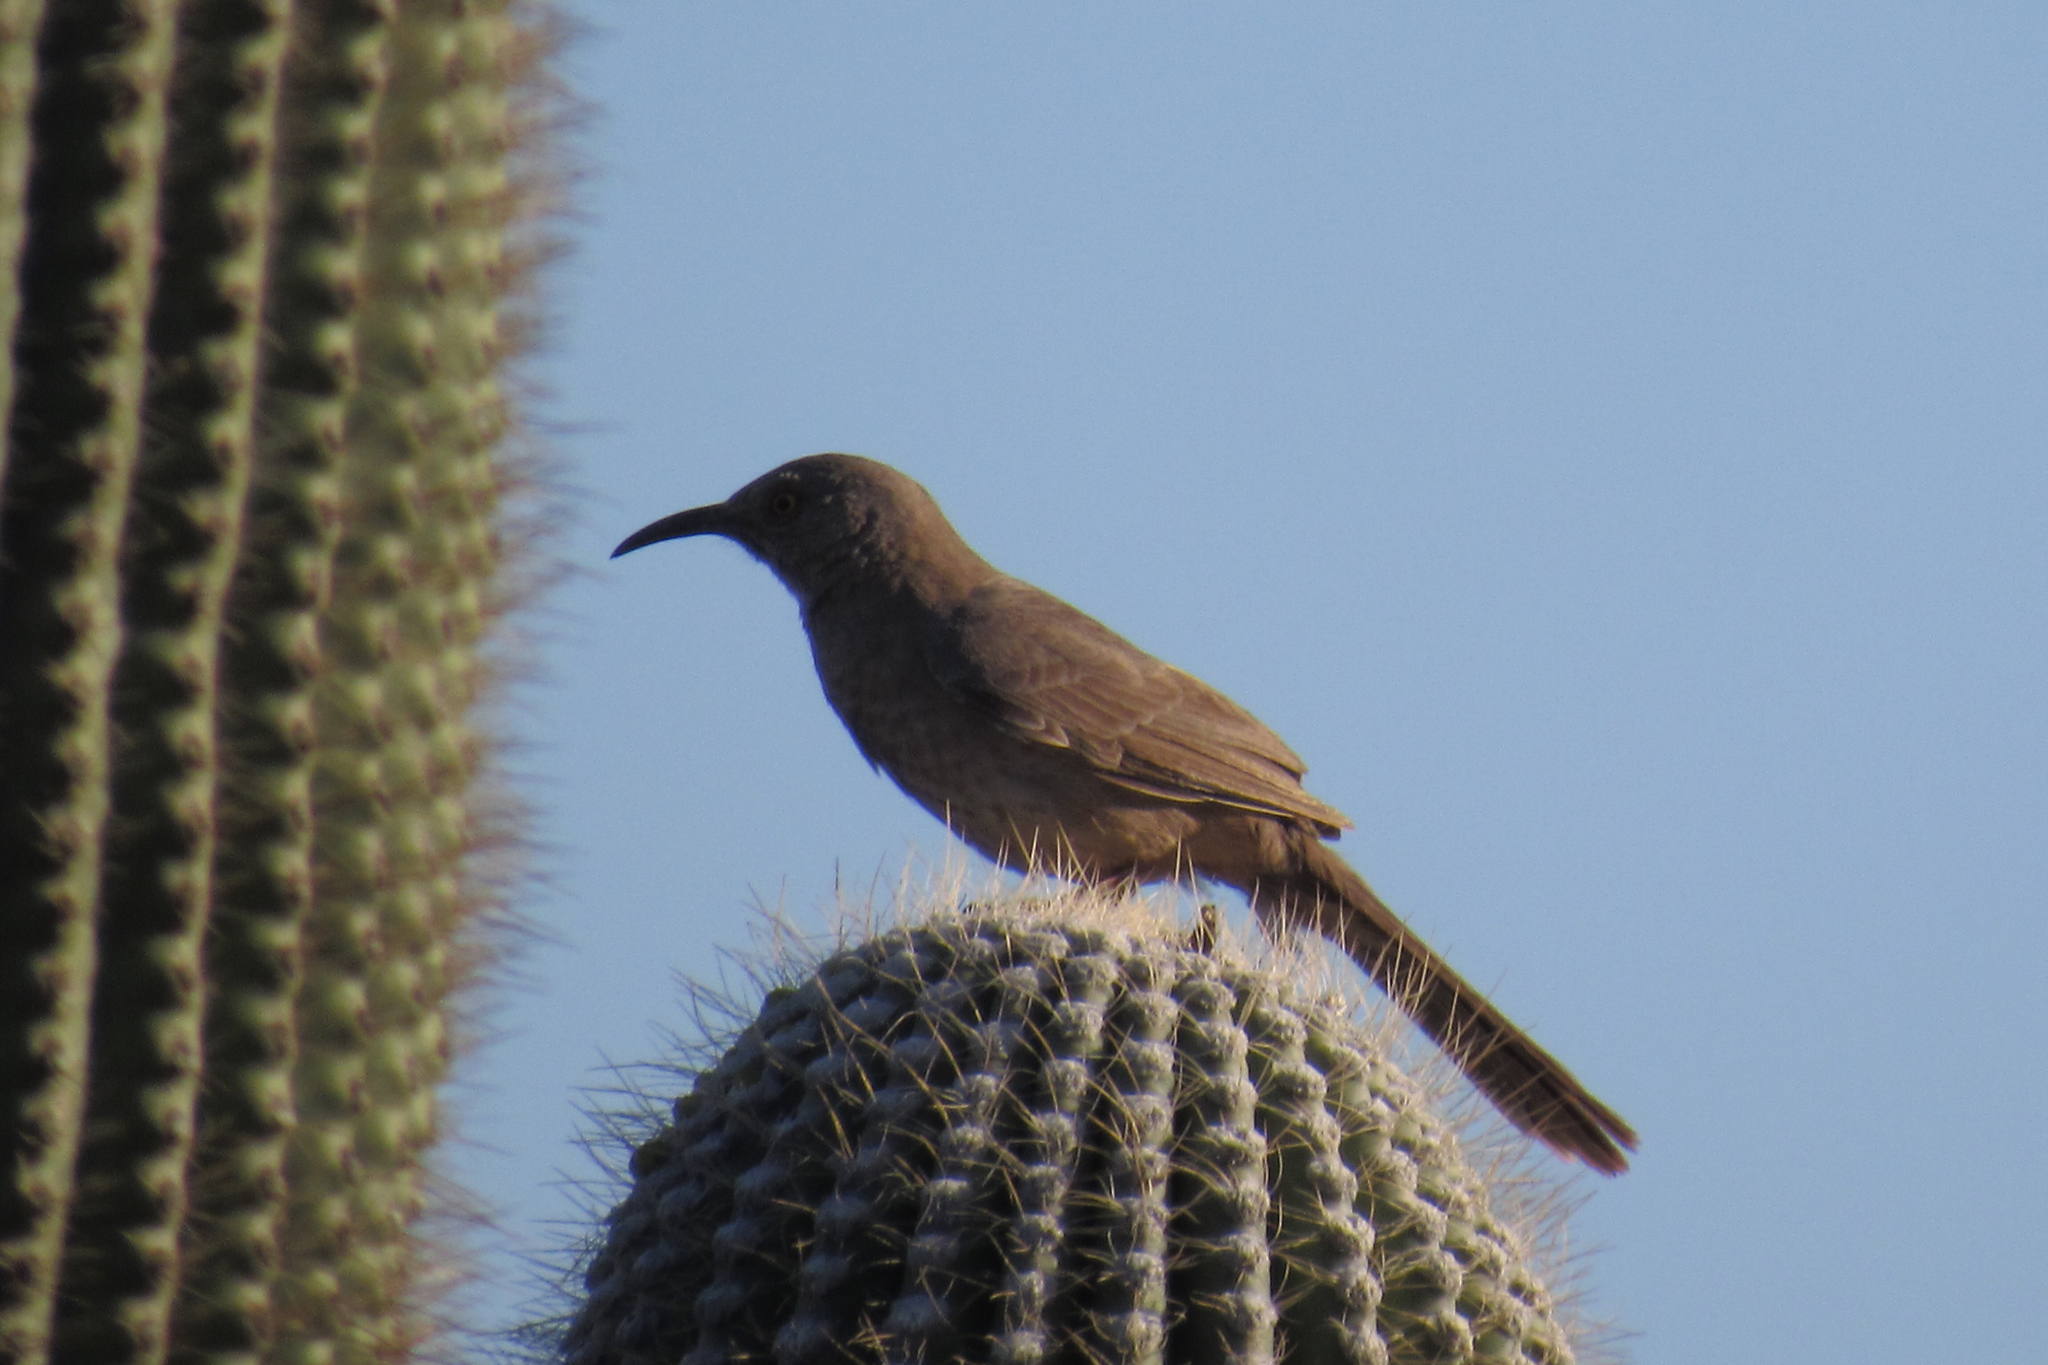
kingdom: Animalia
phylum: Chordata
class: Aves
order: Passeriformes
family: Mimidae
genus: Toxostoma
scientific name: Toxostoma curvirostre
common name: Curve-billed thrasher
